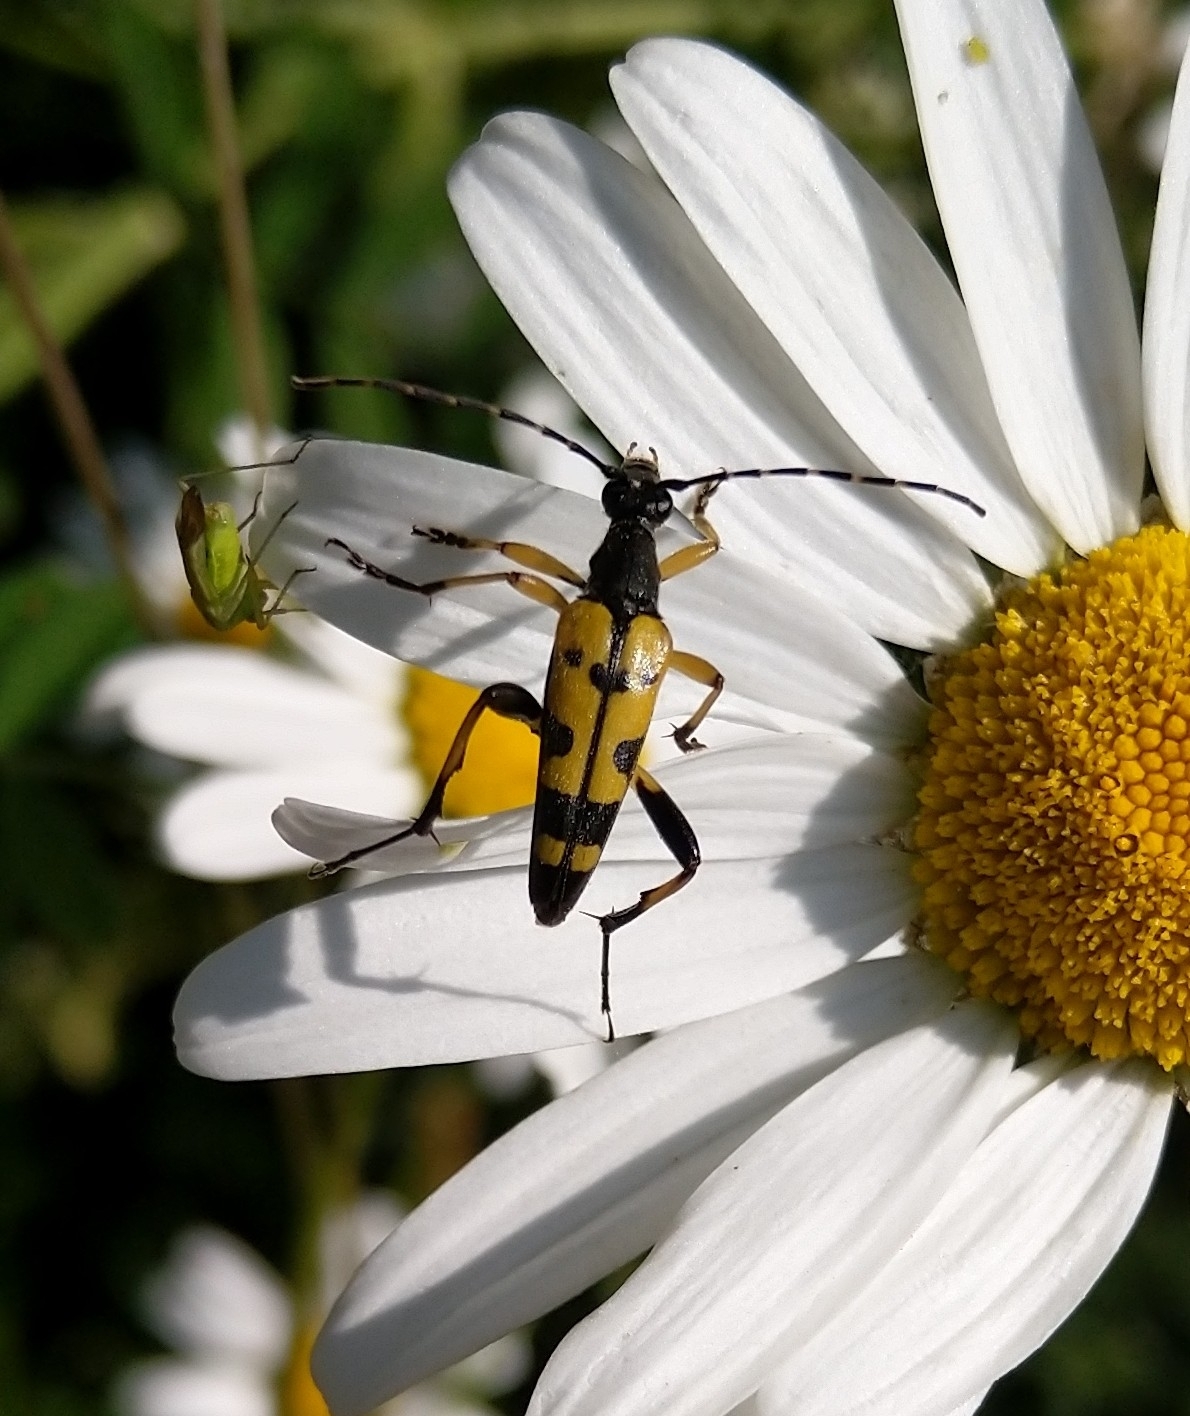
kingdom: Animalia
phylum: Arthropoda
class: Insecta
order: Coleoptera
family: Cerambycidae
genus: Rutpela
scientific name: Rutpela maculata
